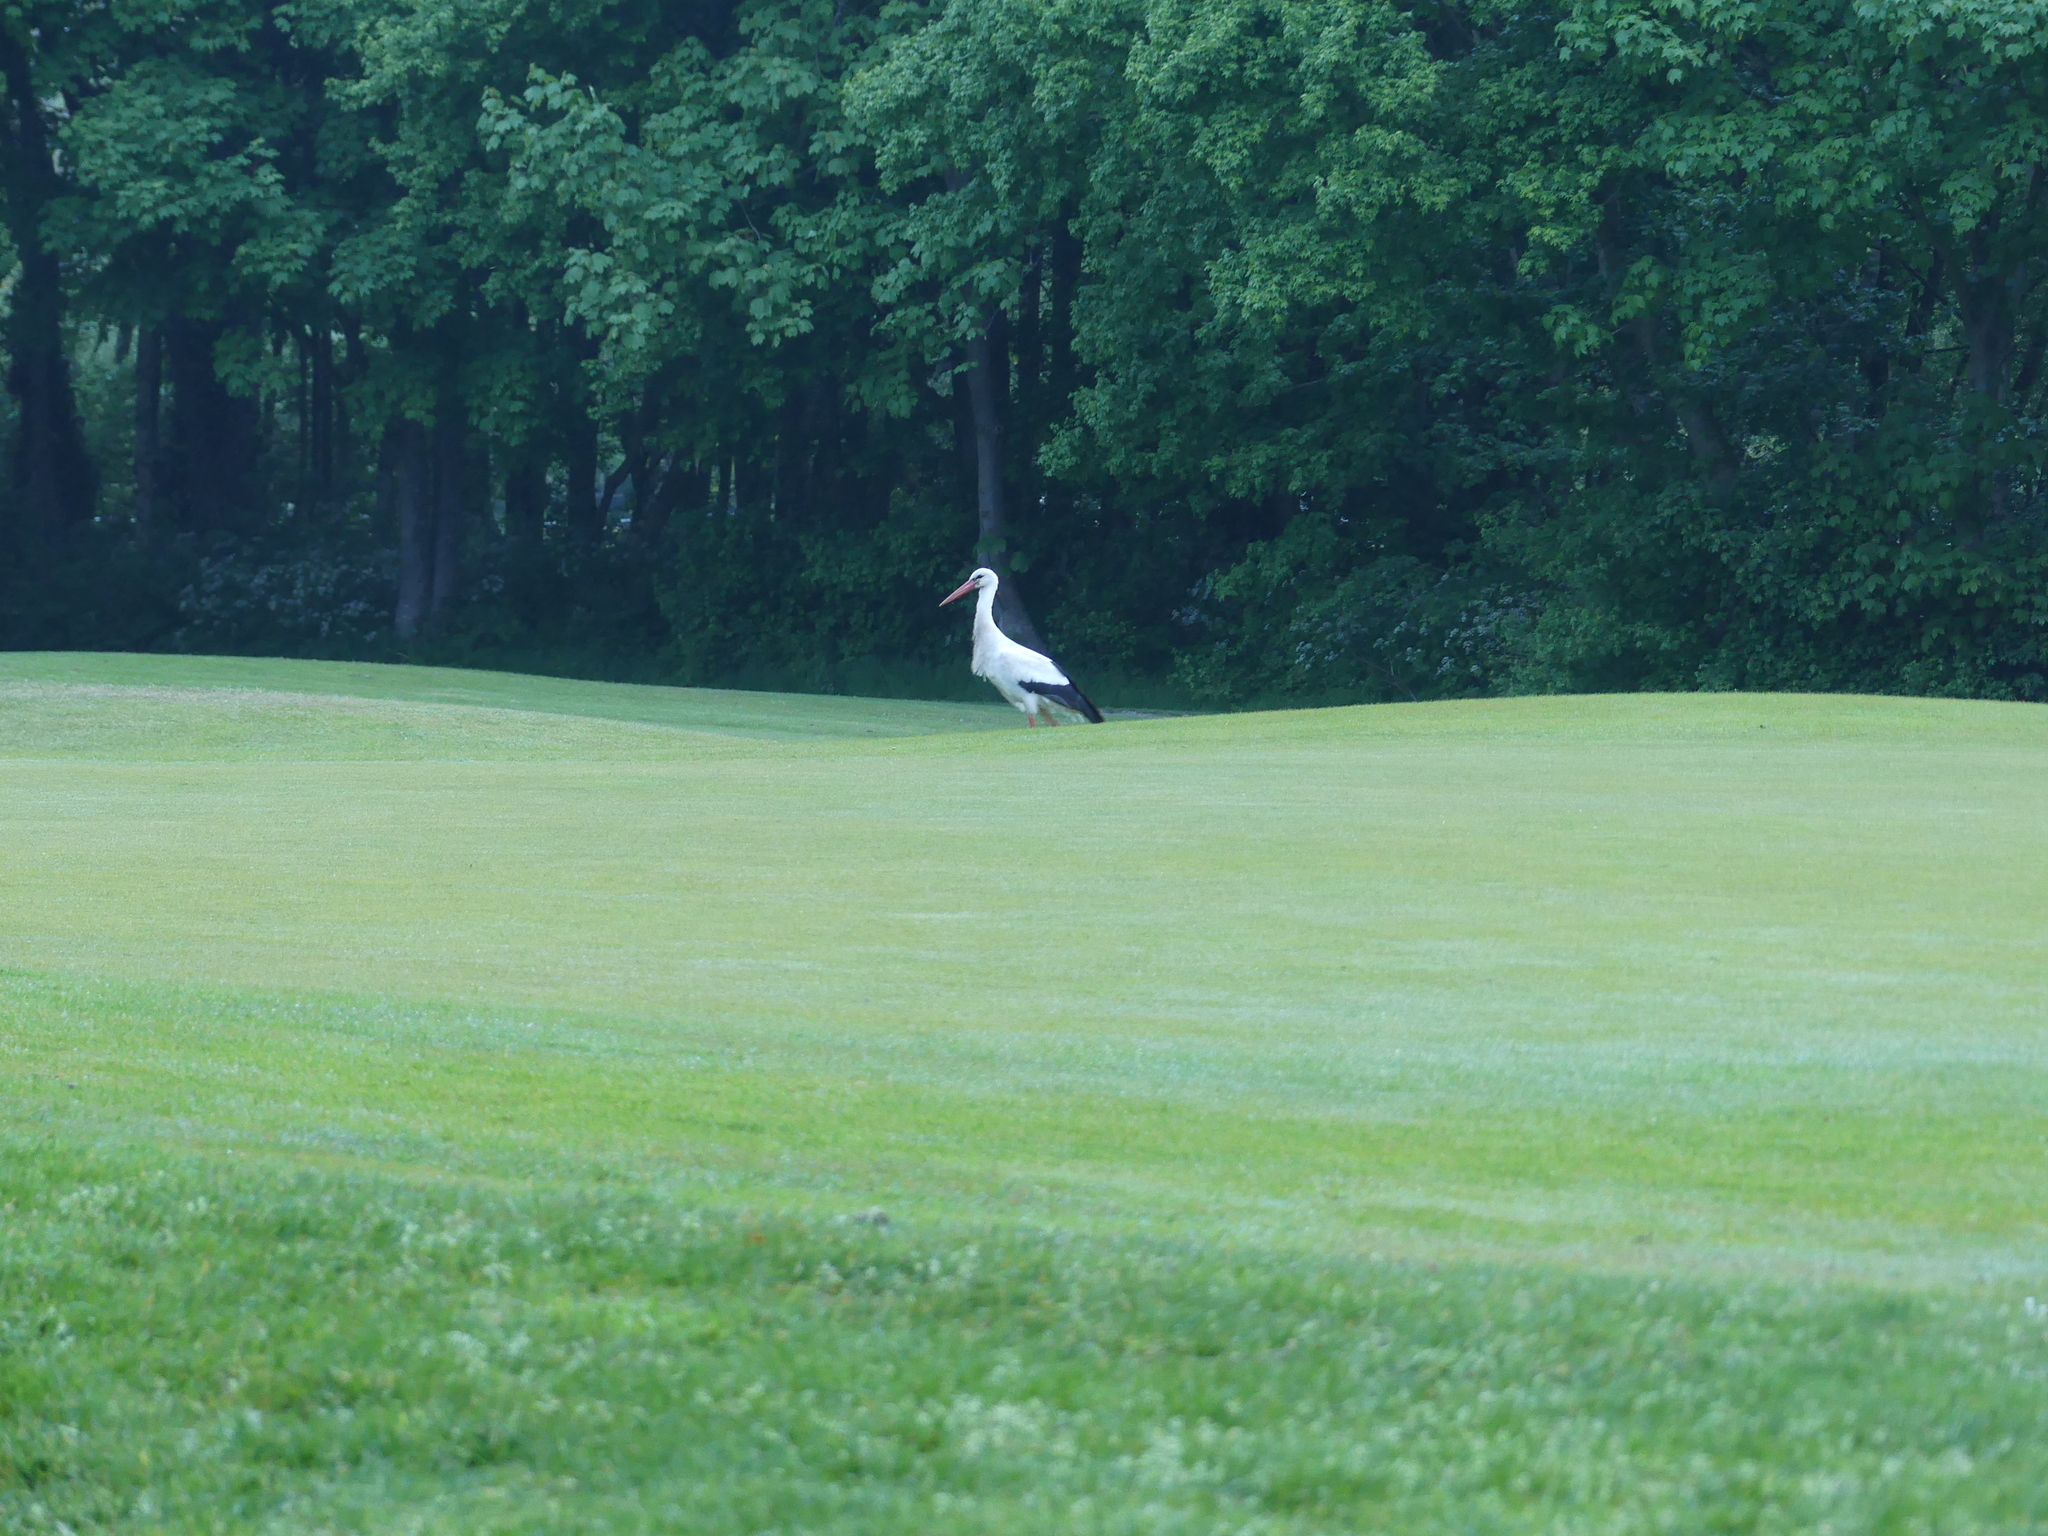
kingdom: Animalia
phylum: Chordata
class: Aves
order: Ciconiiformes
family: Ciconiidae
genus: Ciconia
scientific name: Ciconia ciconia
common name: White stork
